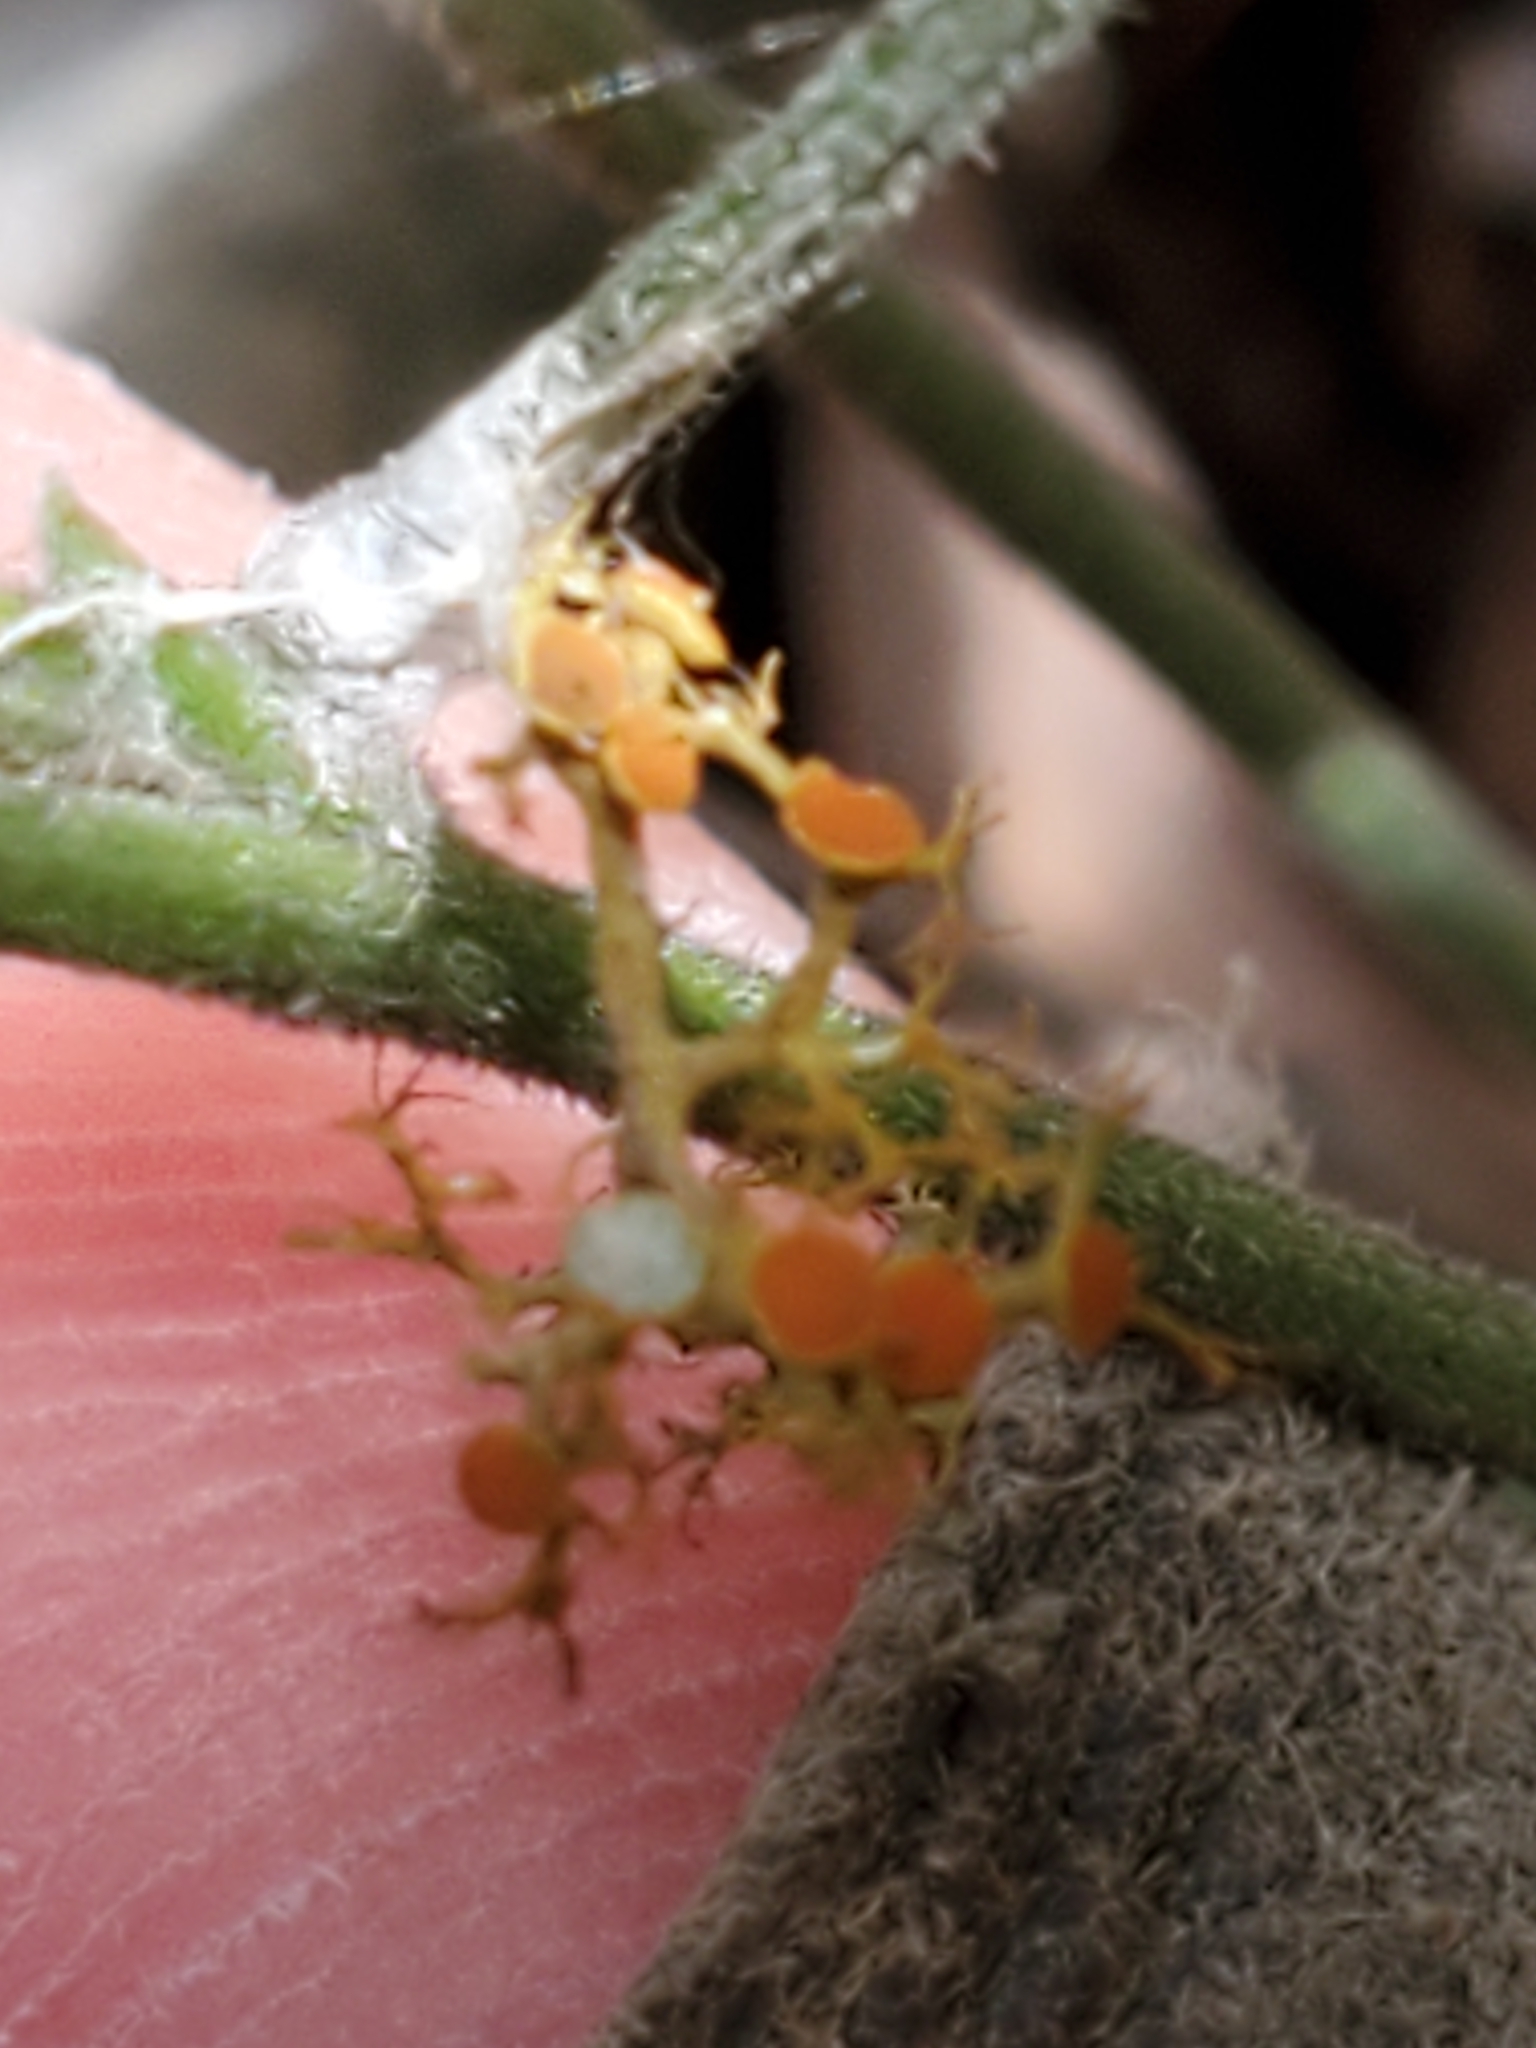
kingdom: Fungi
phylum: Ascomycota
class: Lecanoromycetes
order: Teloschistales
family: Teloschistaceae
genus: Teloschistes
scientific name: Teloschistes exilis
